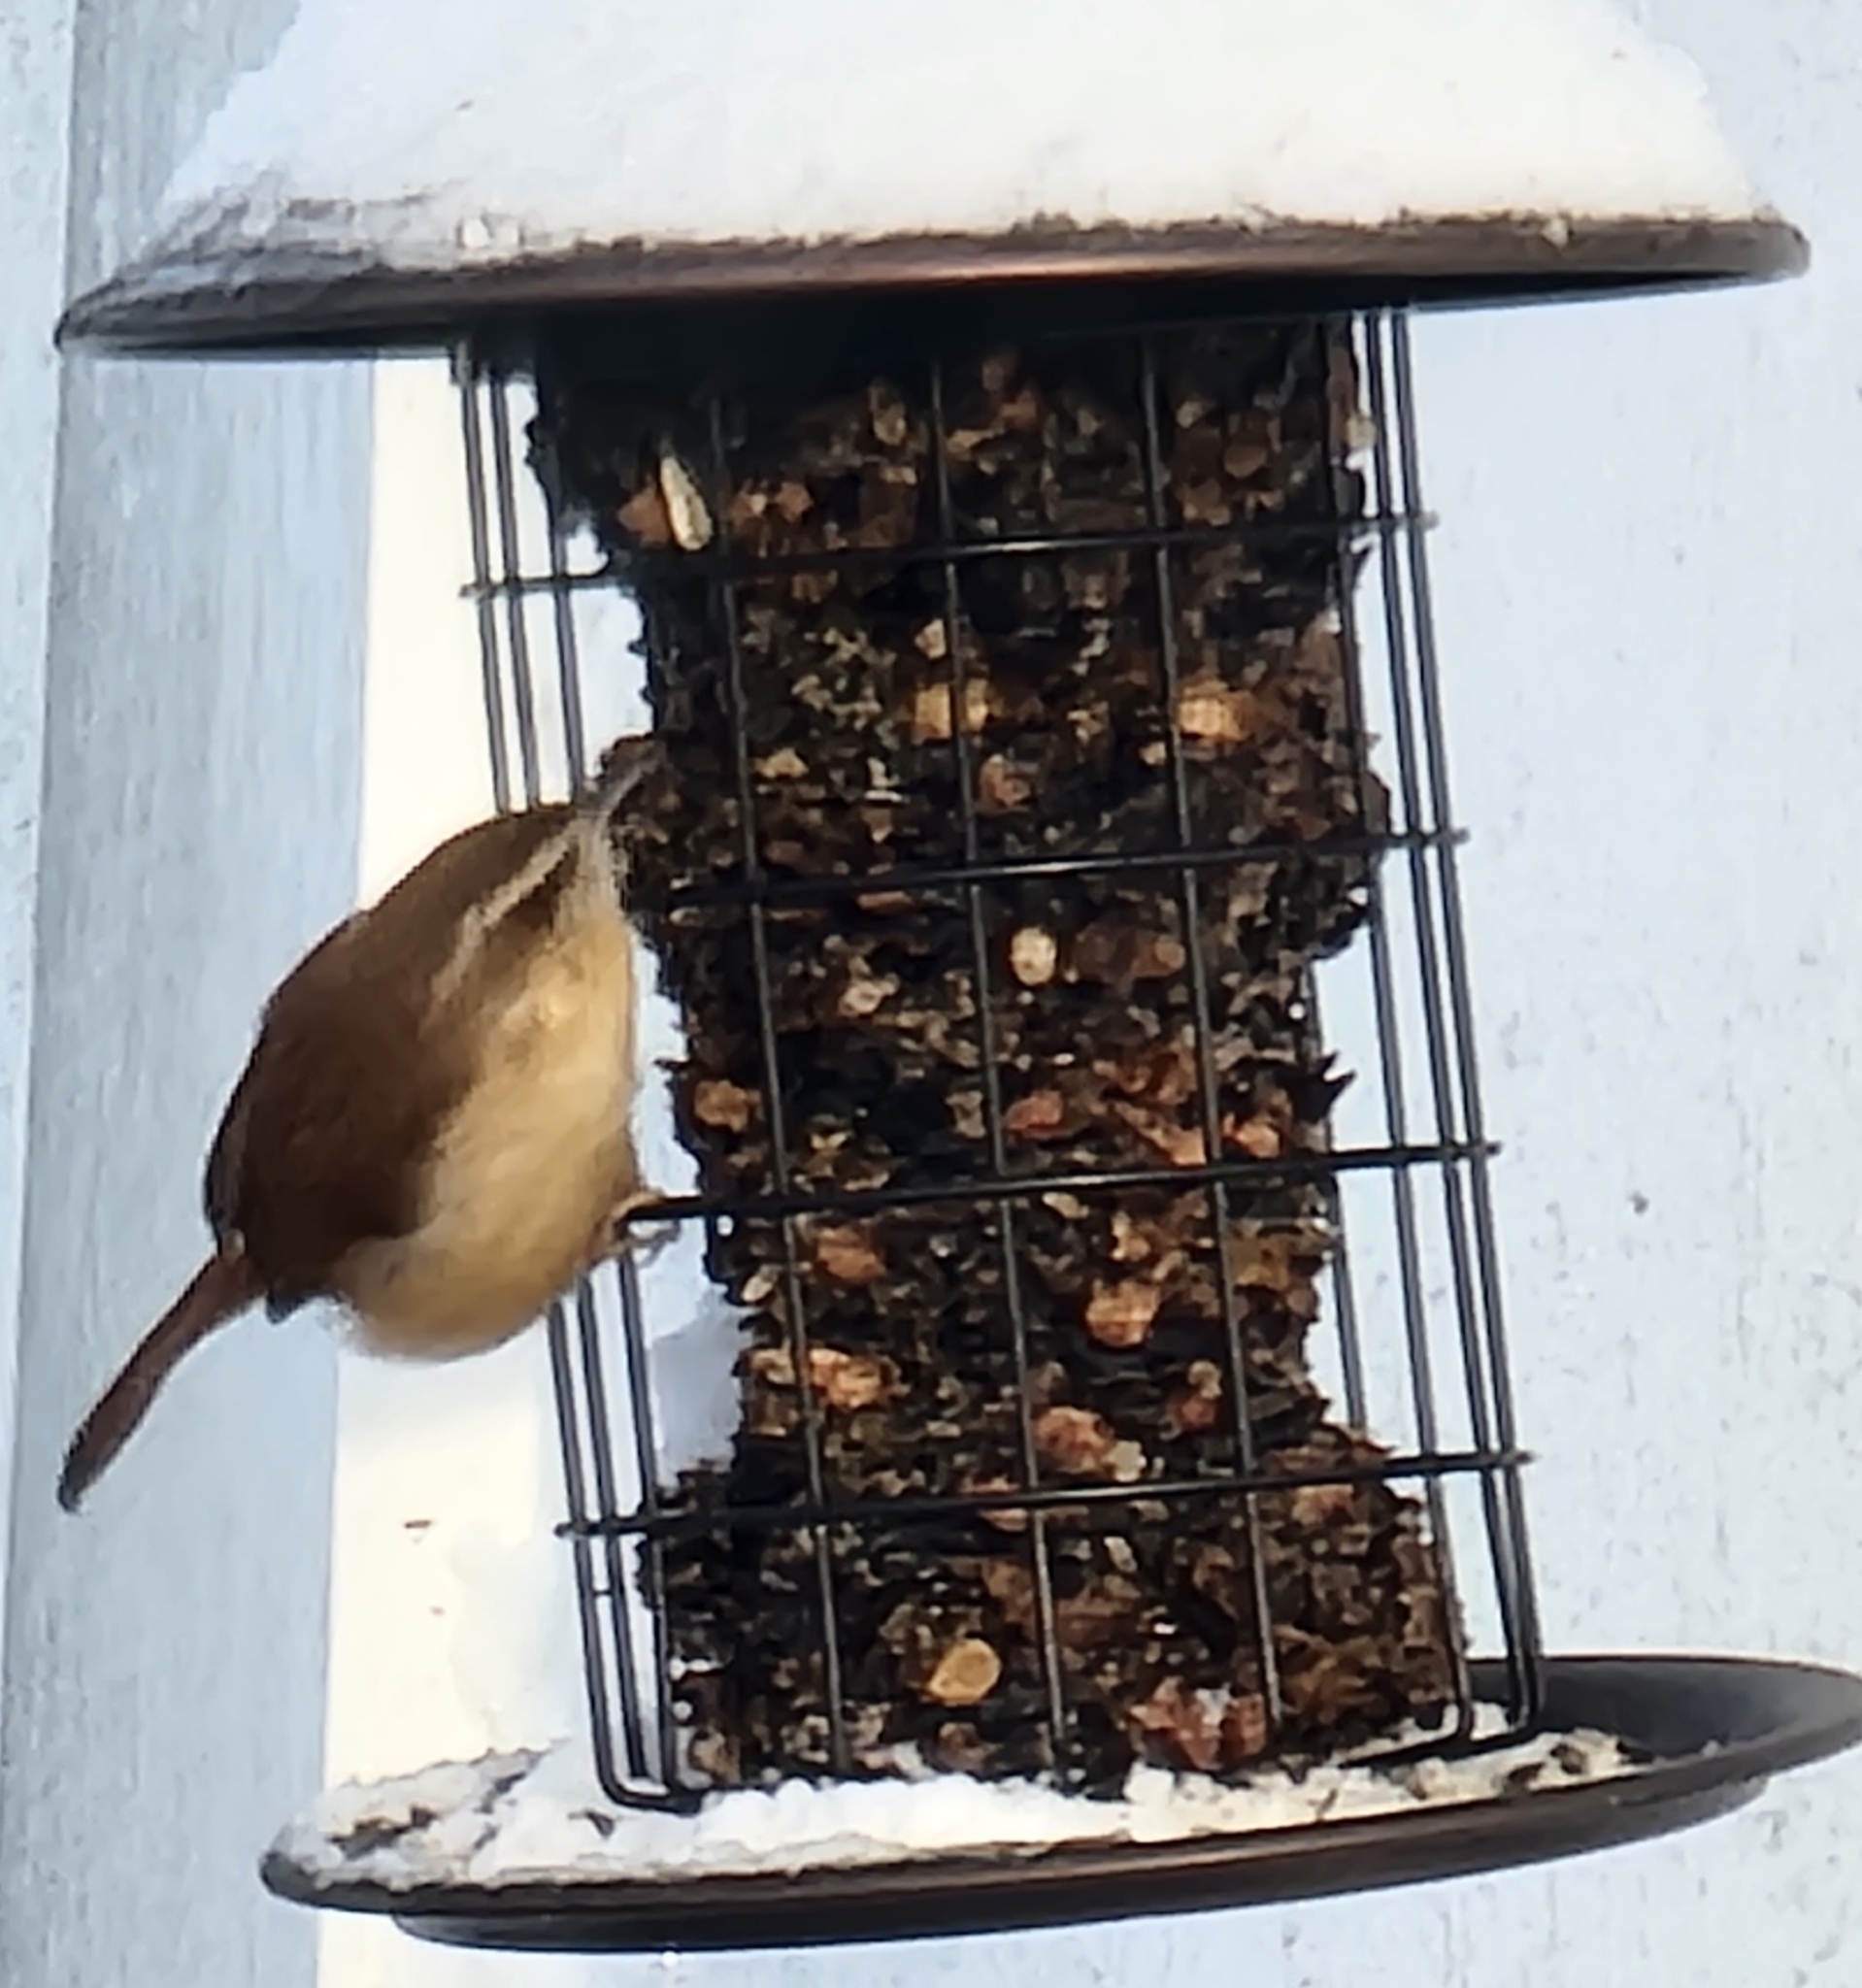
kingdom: Animalia
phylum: Chordata
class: Aves
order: Passeriformes
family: Troglodytidae
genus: Thryothorus
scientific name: Thryothorus ludovicianus
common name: Carolina wren
